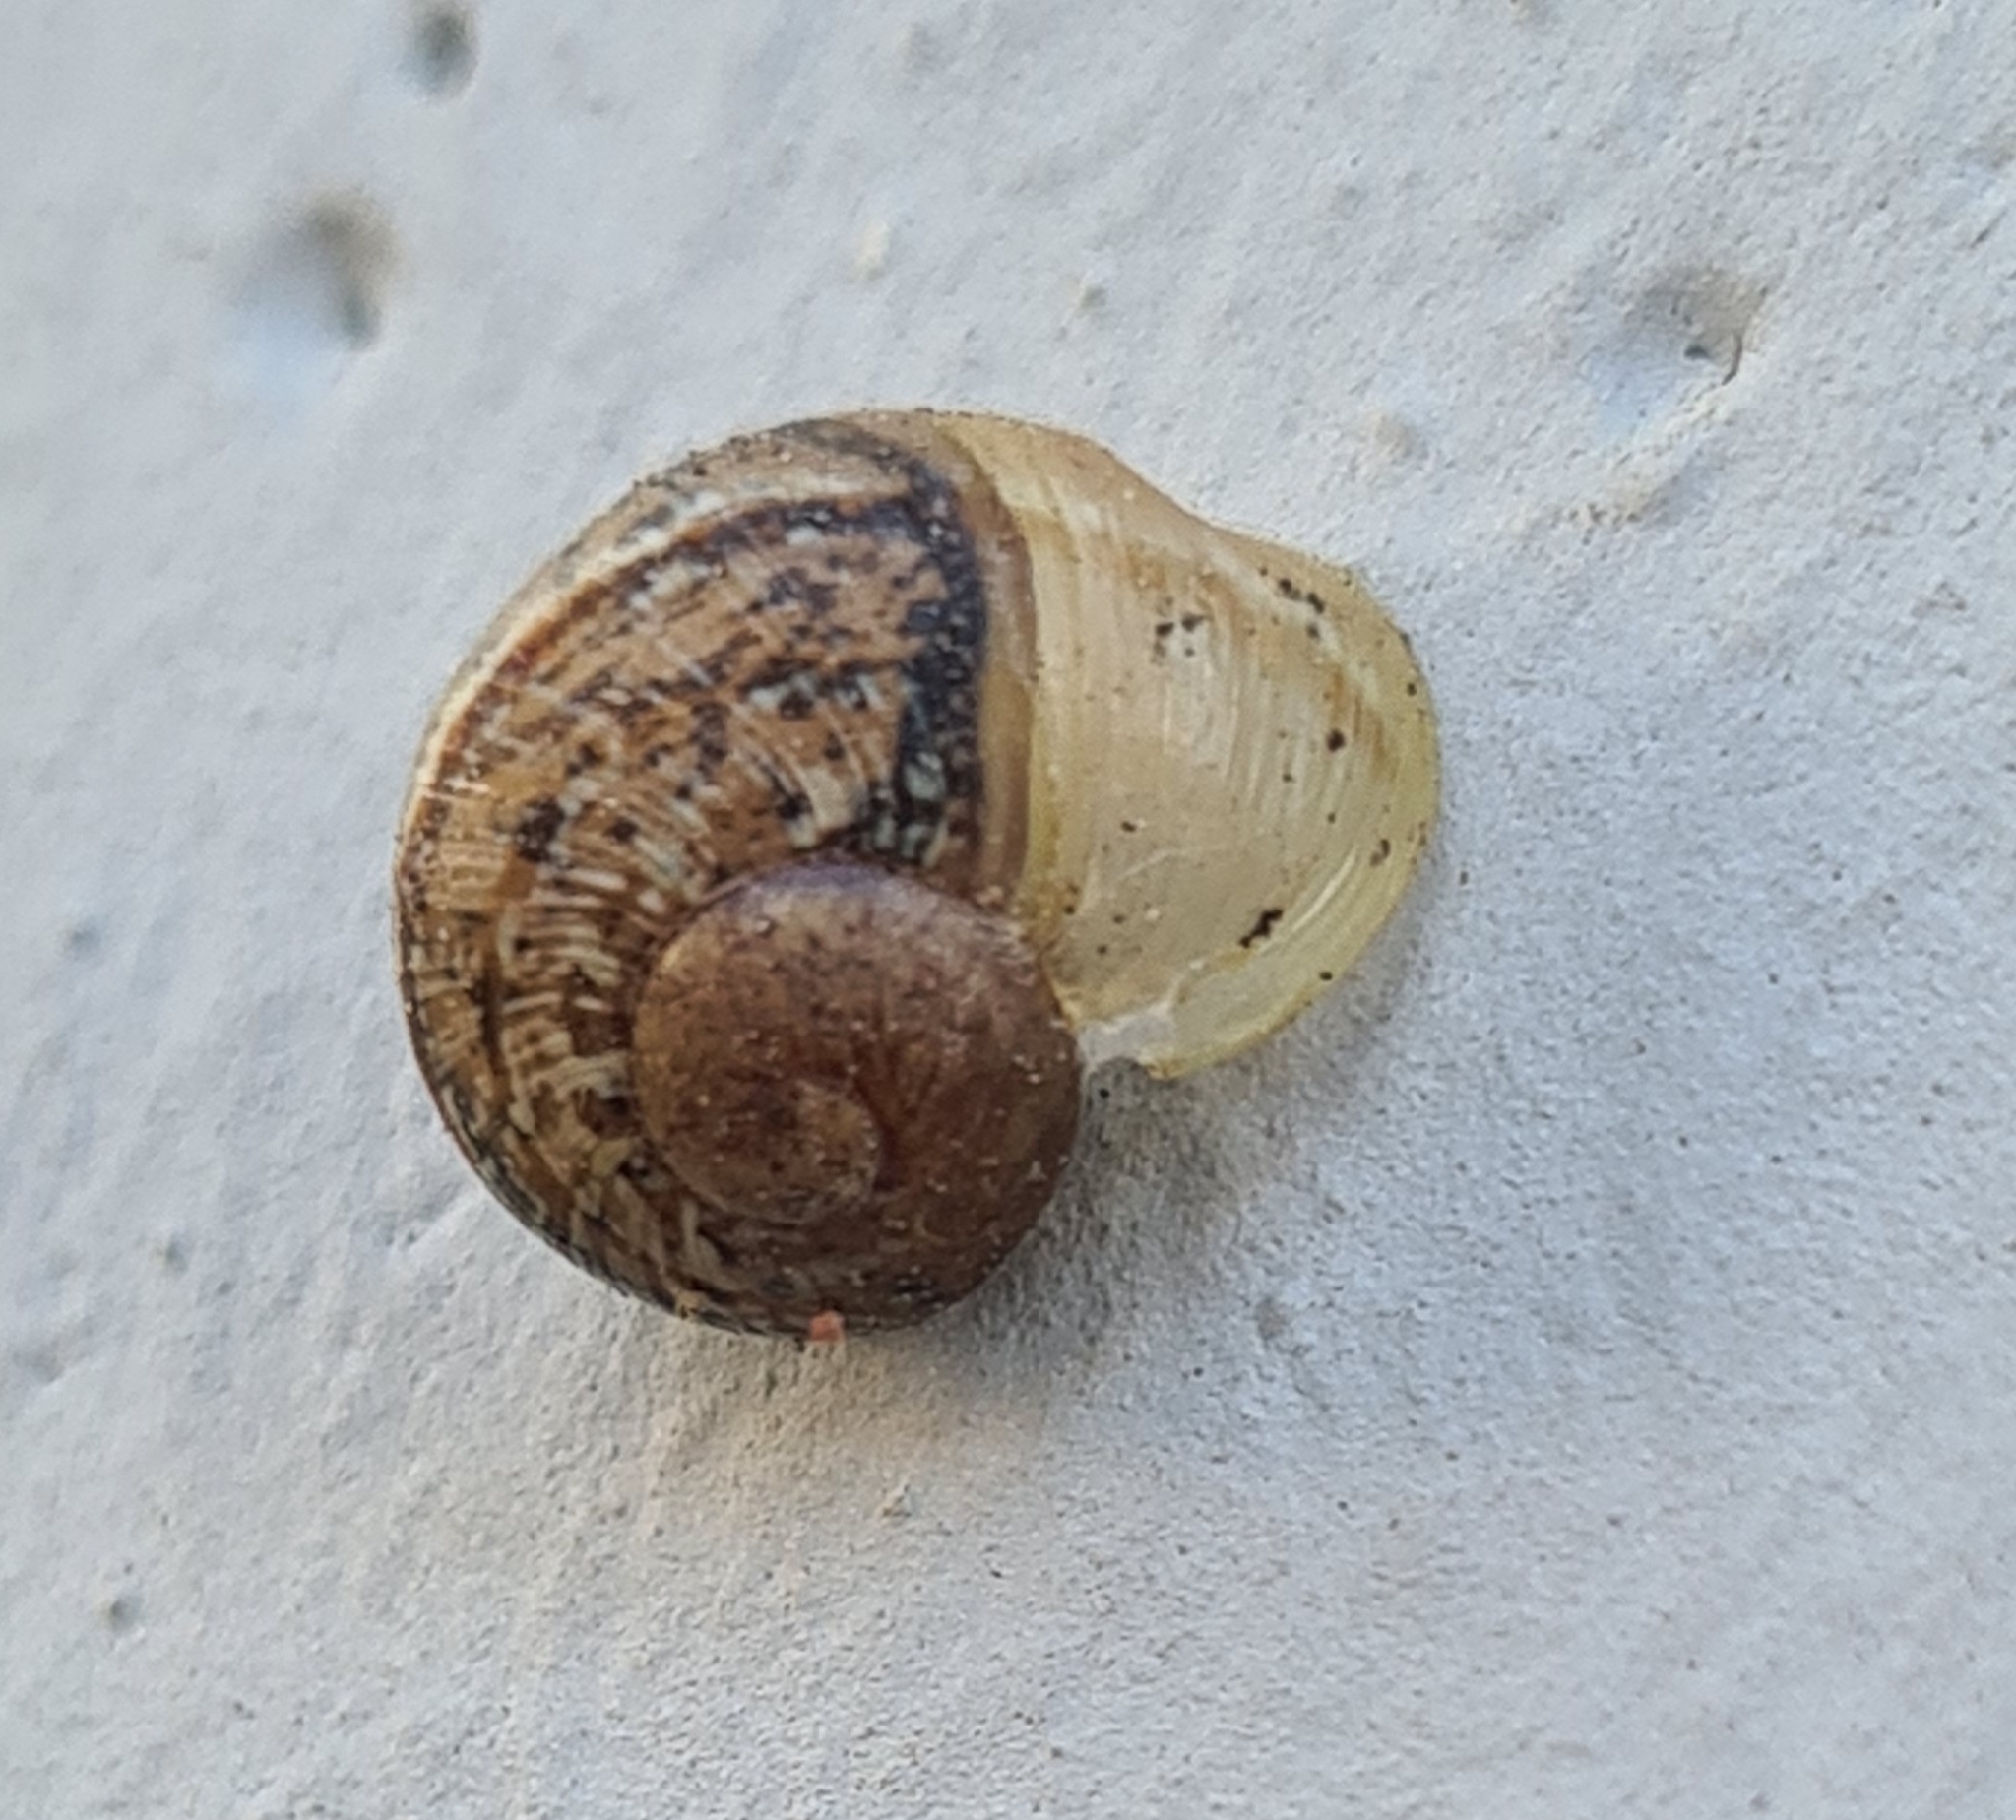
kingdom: Animalia
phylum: Mollusca
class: Gastropoda
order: Stylommatophora
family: Helicidae
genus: Cornu
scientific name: Cornu aspersum
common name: Brown garden snail
